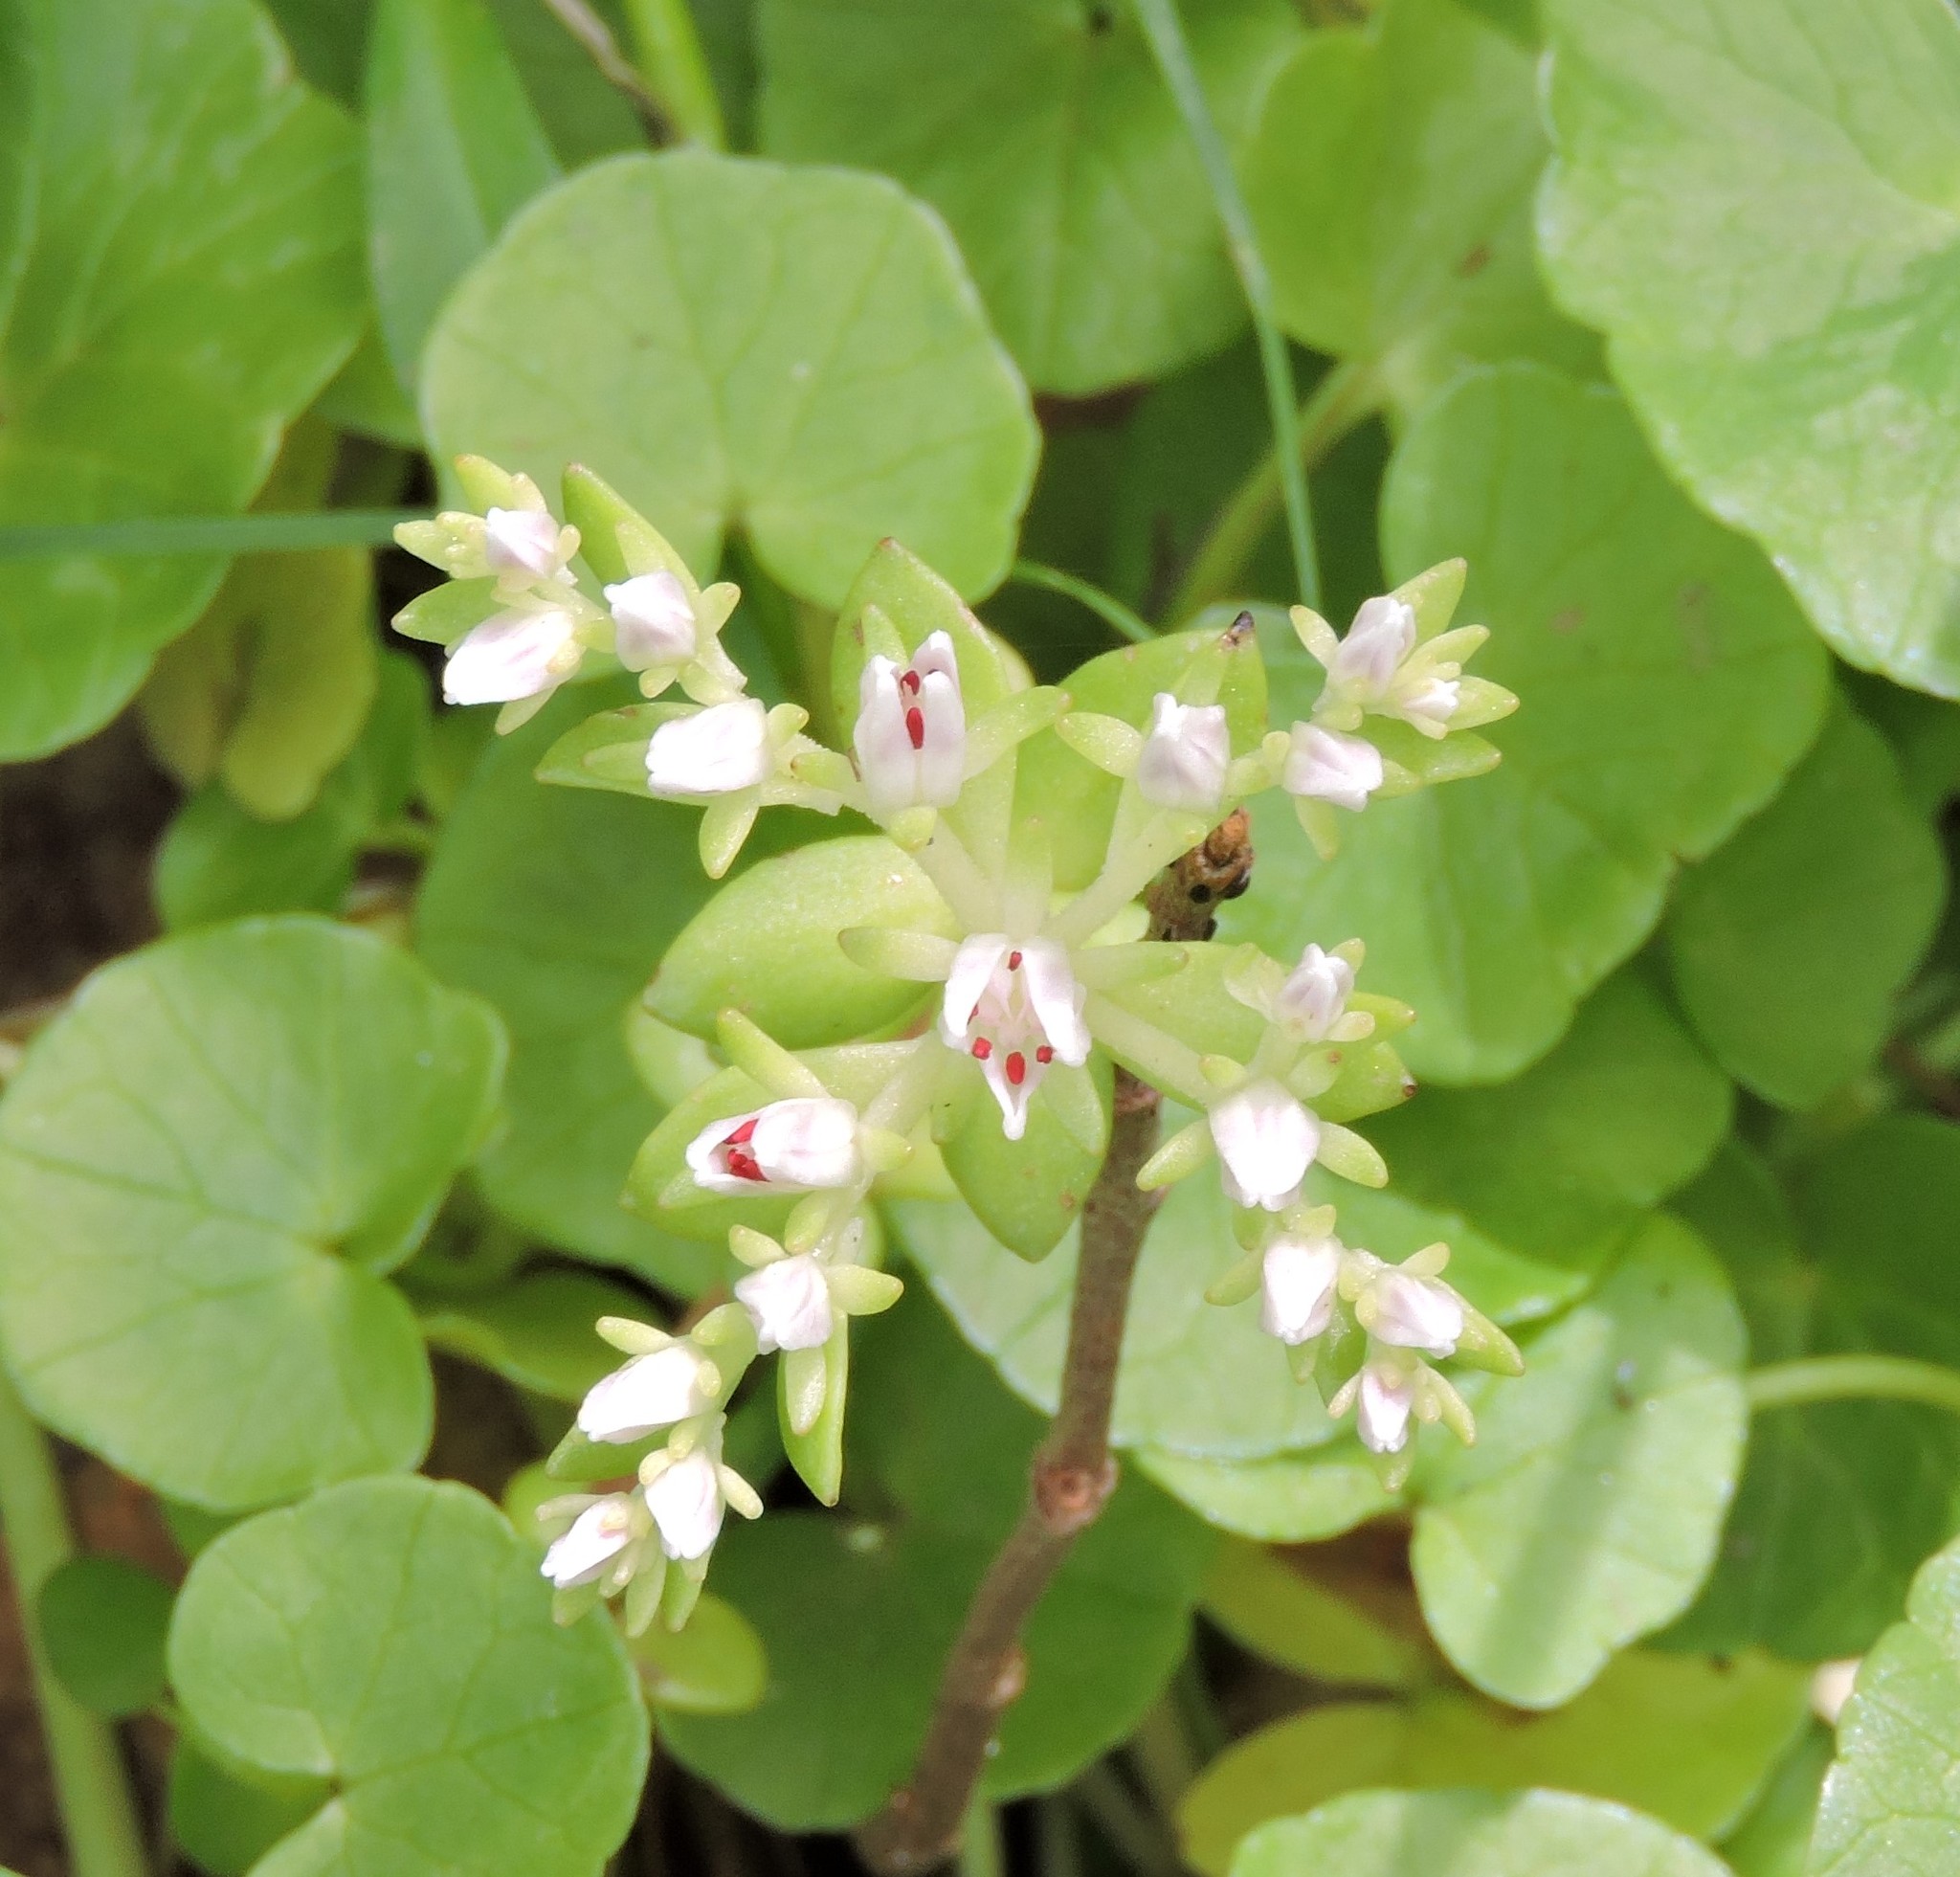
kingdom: Plantae
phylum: Tracheophyta
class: Magnoliopsida
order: Saxifragales
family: Crassulaceae
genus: Sedum
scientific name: Sedum ternatum
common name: Wild stonecrop
